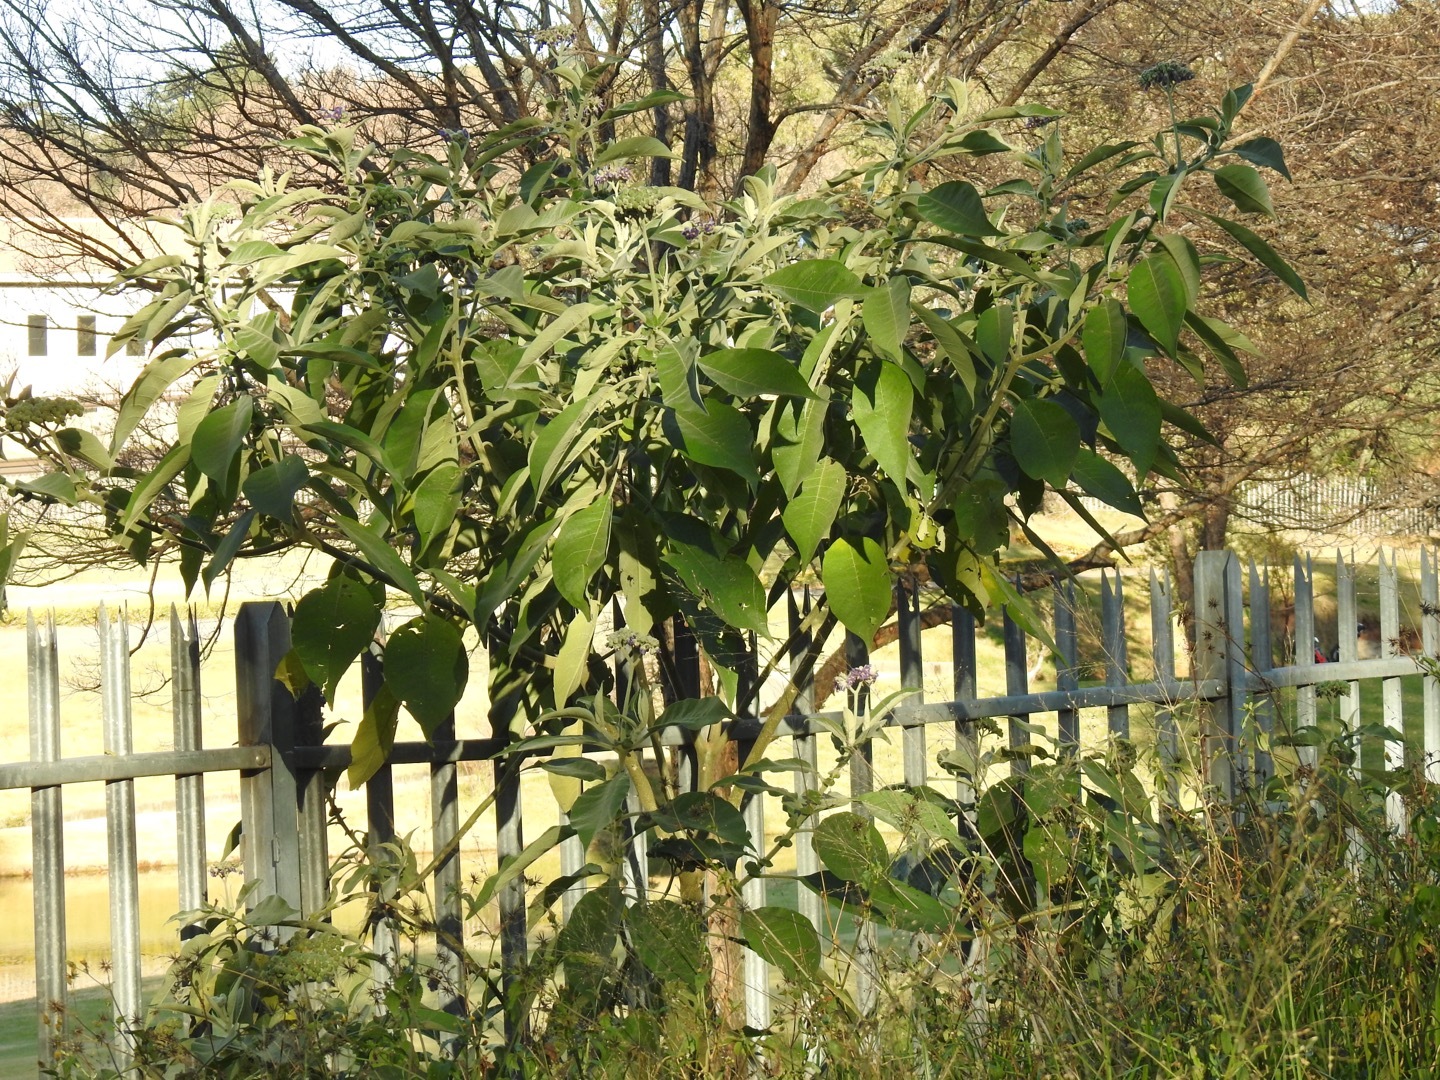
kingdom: Plantae
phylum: Tracheophyta
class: Magnoliopsida
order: Solanales
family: Solanaceae
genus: Solanum
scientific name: Solanum mauritianum
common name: Earleaf nightshade
